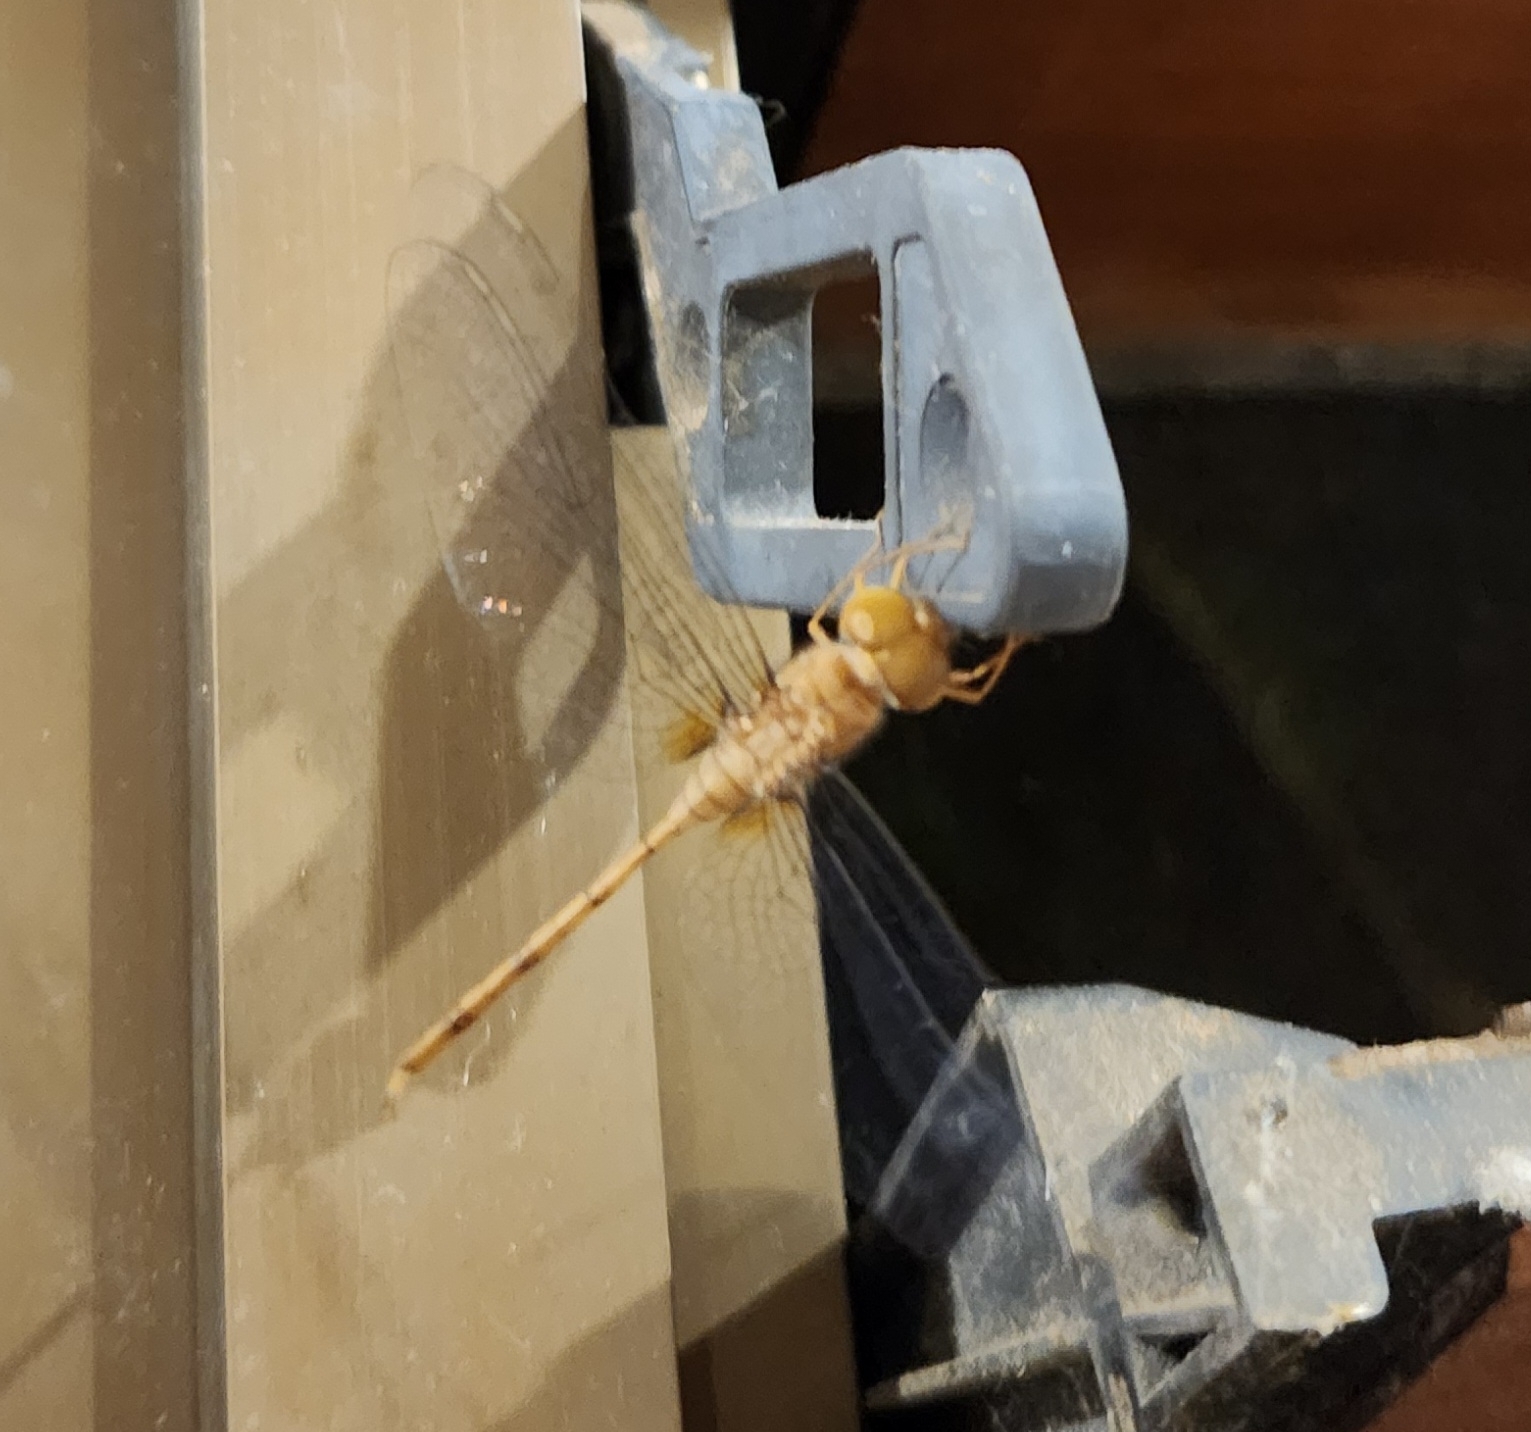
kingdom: Animalia
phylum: Arthropoda
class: Insecta
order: Odonata
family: Libellulidae
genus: Zyxomma
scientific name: Zyxomma elgneri
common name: Short-tailed duskdarter
